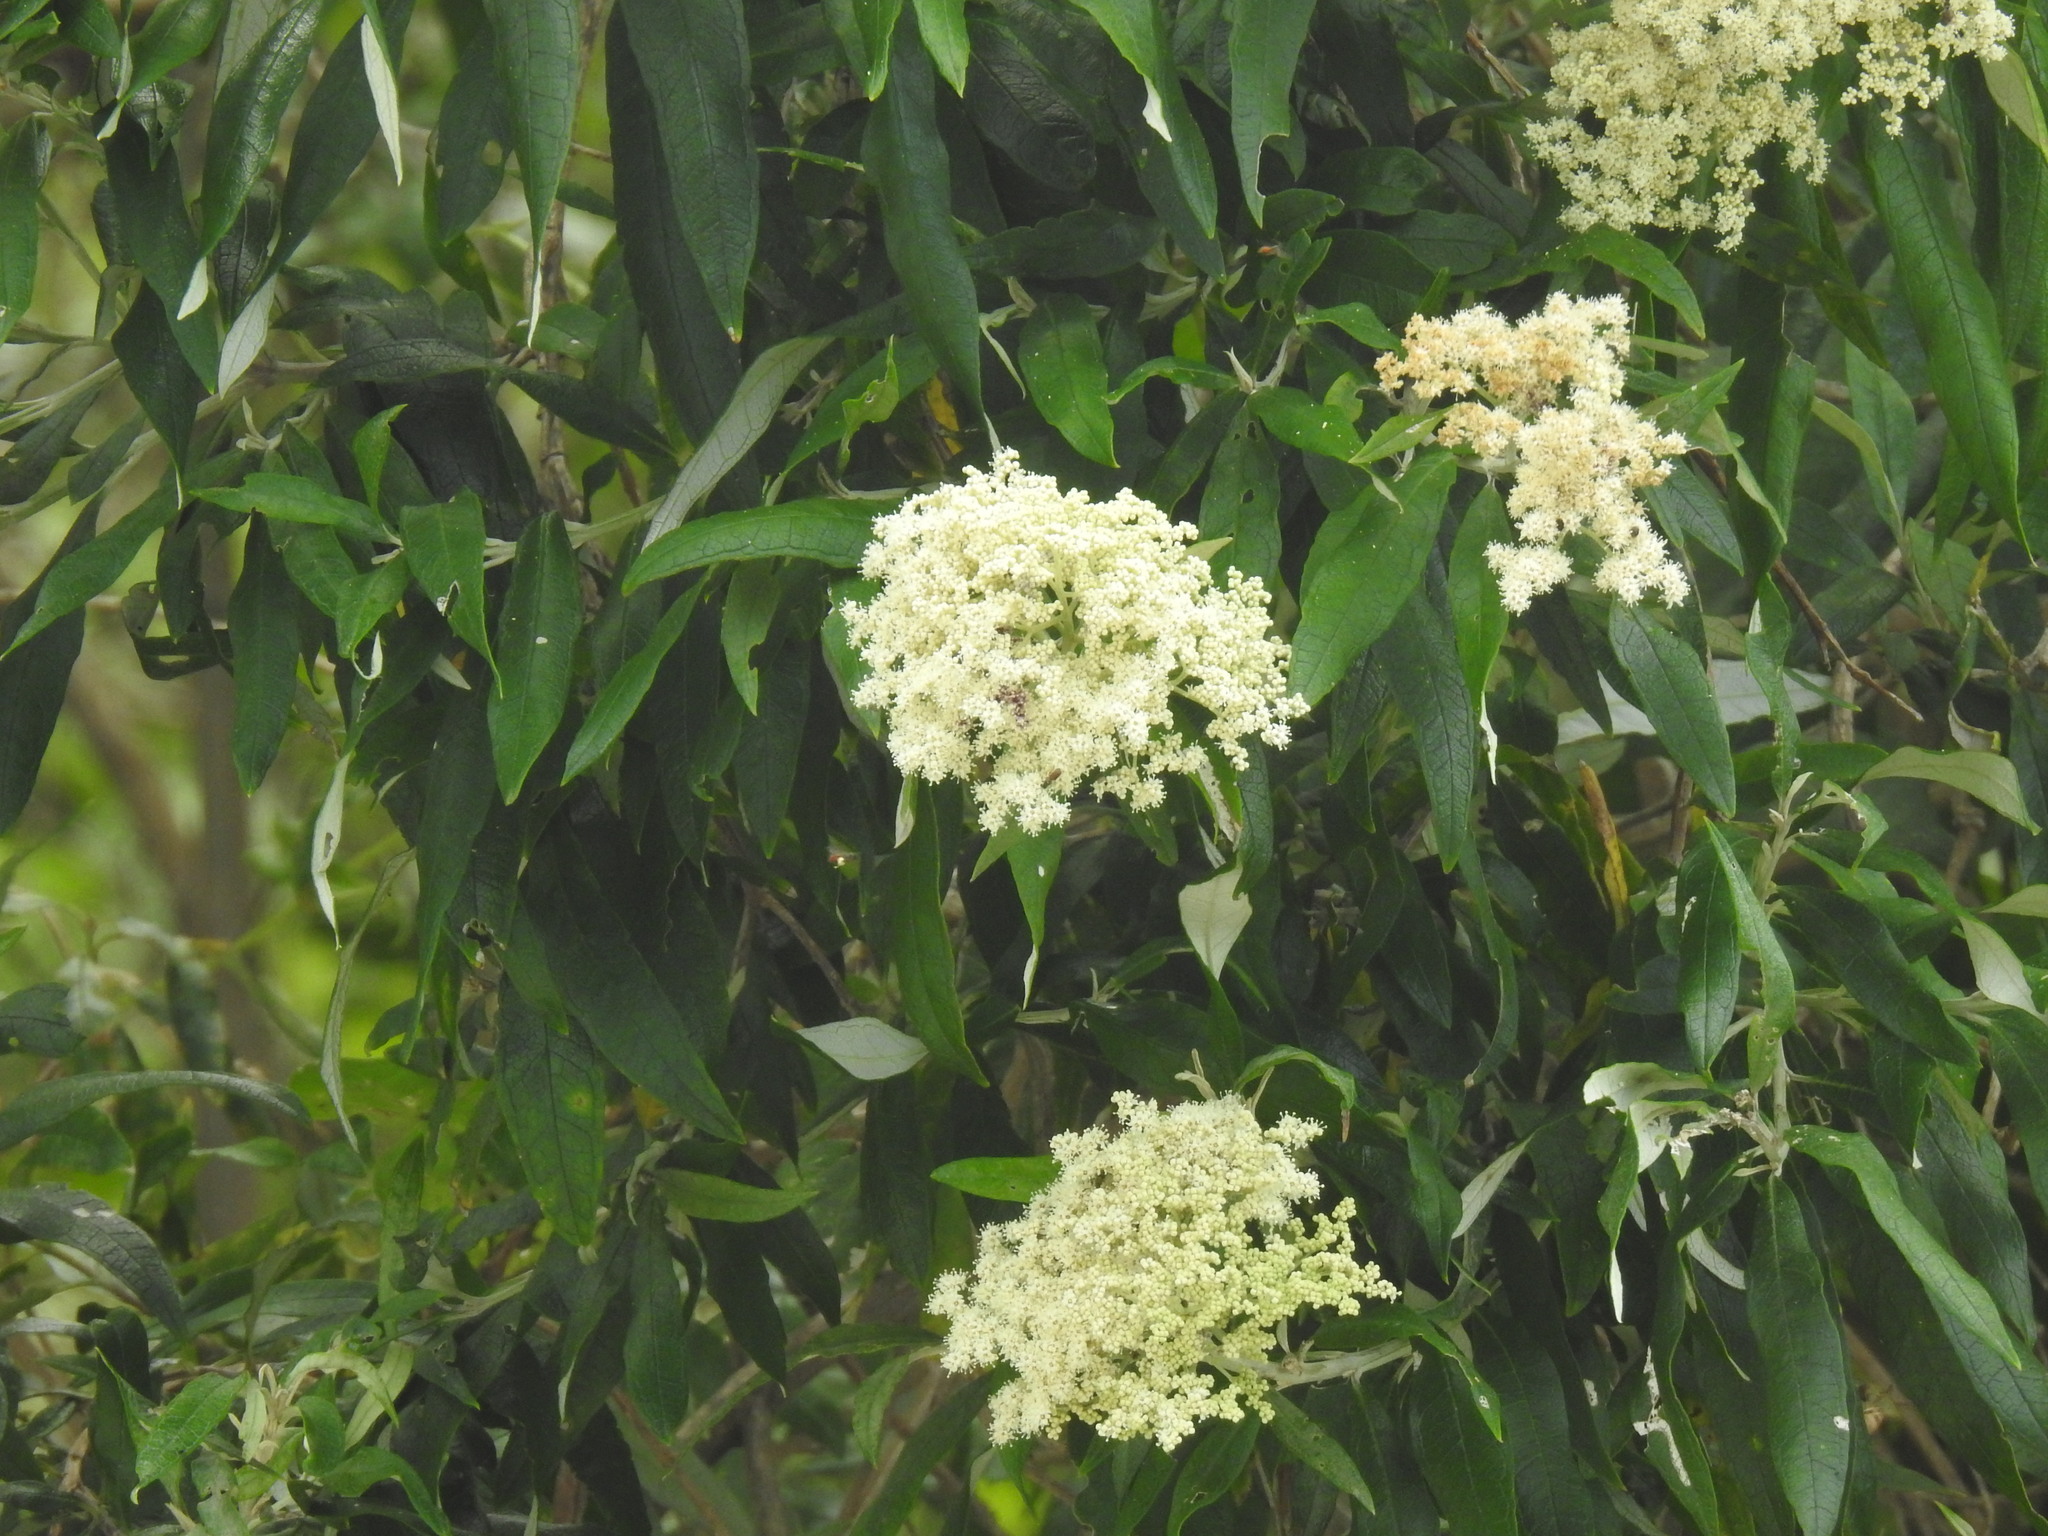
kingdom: Plantae
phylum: Tracheophyta
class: Magnoliopsida
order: Lamiales
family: Scrophulariaceae
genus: Buddleja
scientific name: Buddleja saligna
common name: False olive
